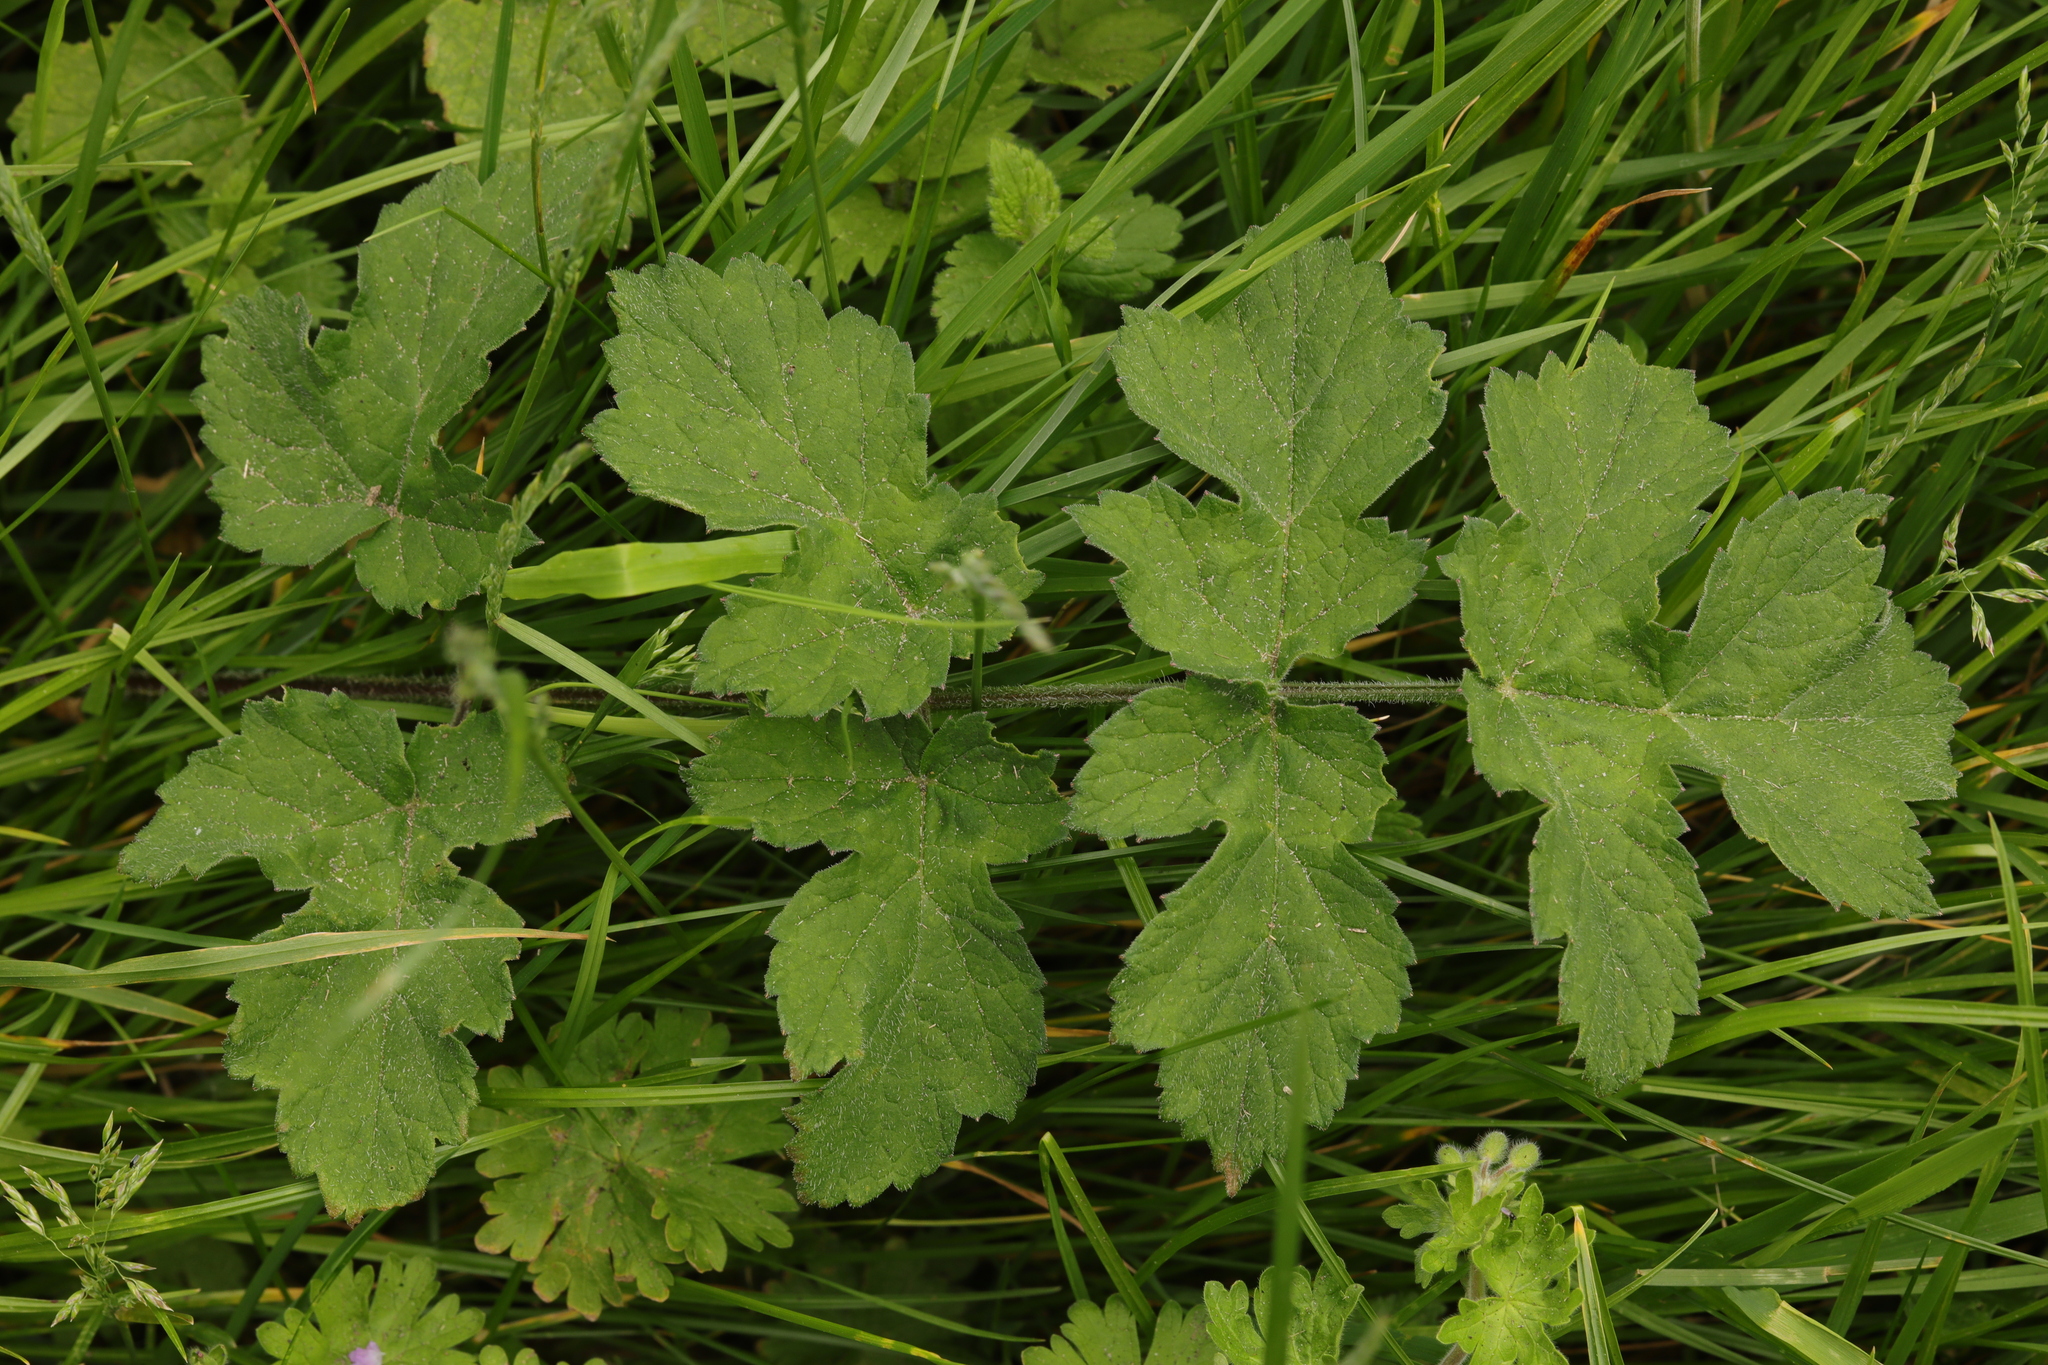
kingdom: Plantae
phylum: Tracheophyta
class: Magnoliopsida
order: Apiales
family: Apiaceae
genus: Heracleum
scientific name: Heracleum sphondylium
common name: Hogweed
